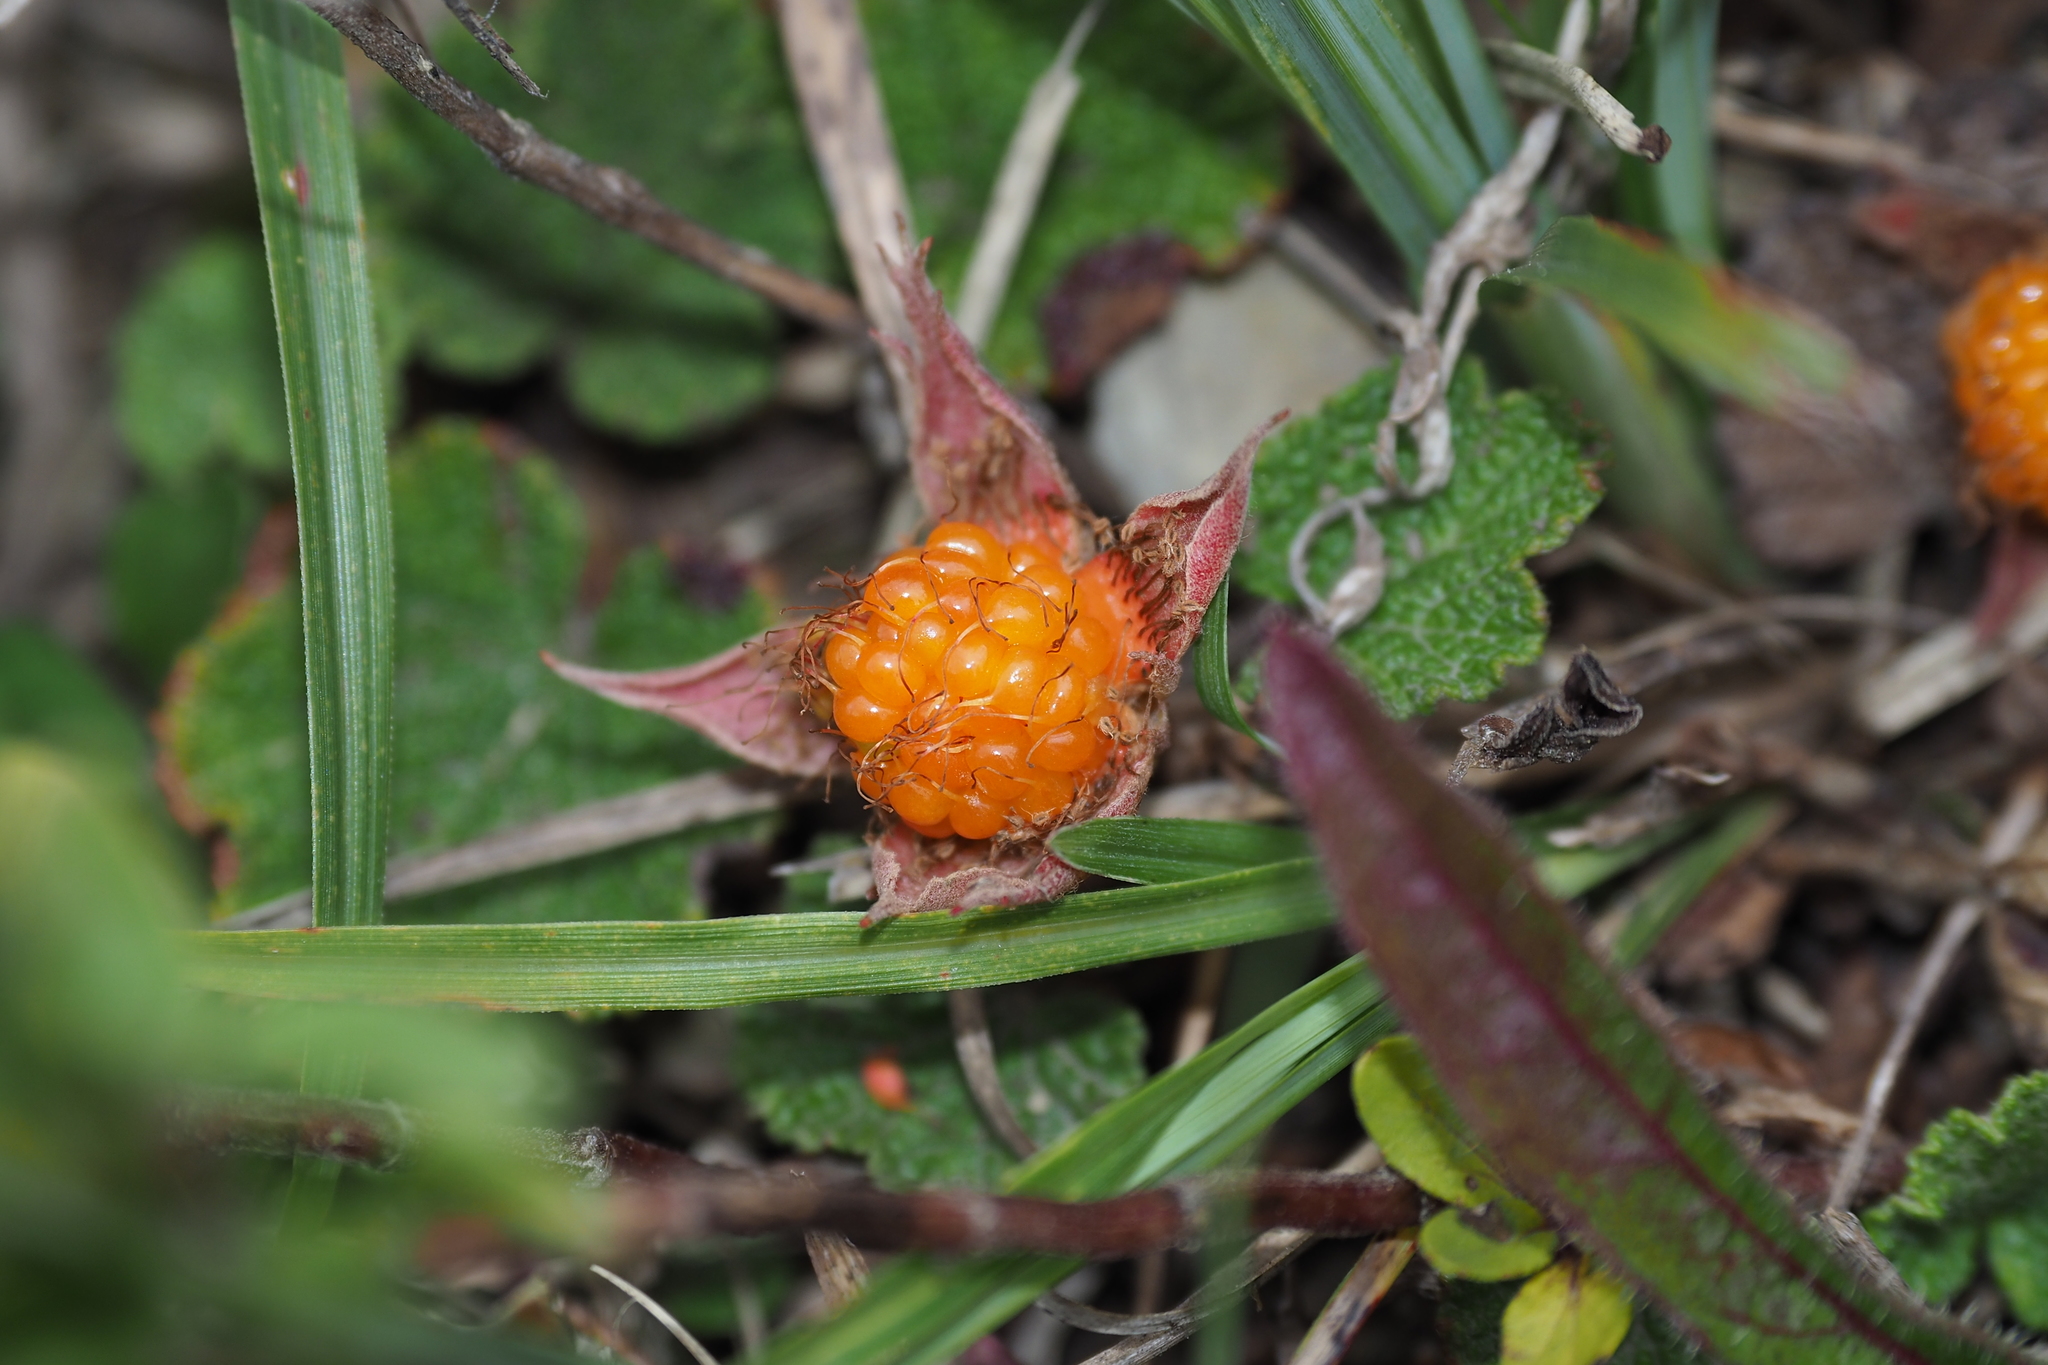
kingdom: Plantae
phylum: Tracheophyta
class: Magnoliopsida
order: Rosales
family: Rosaceae
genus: Rubus
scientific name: Rubus rolfei
